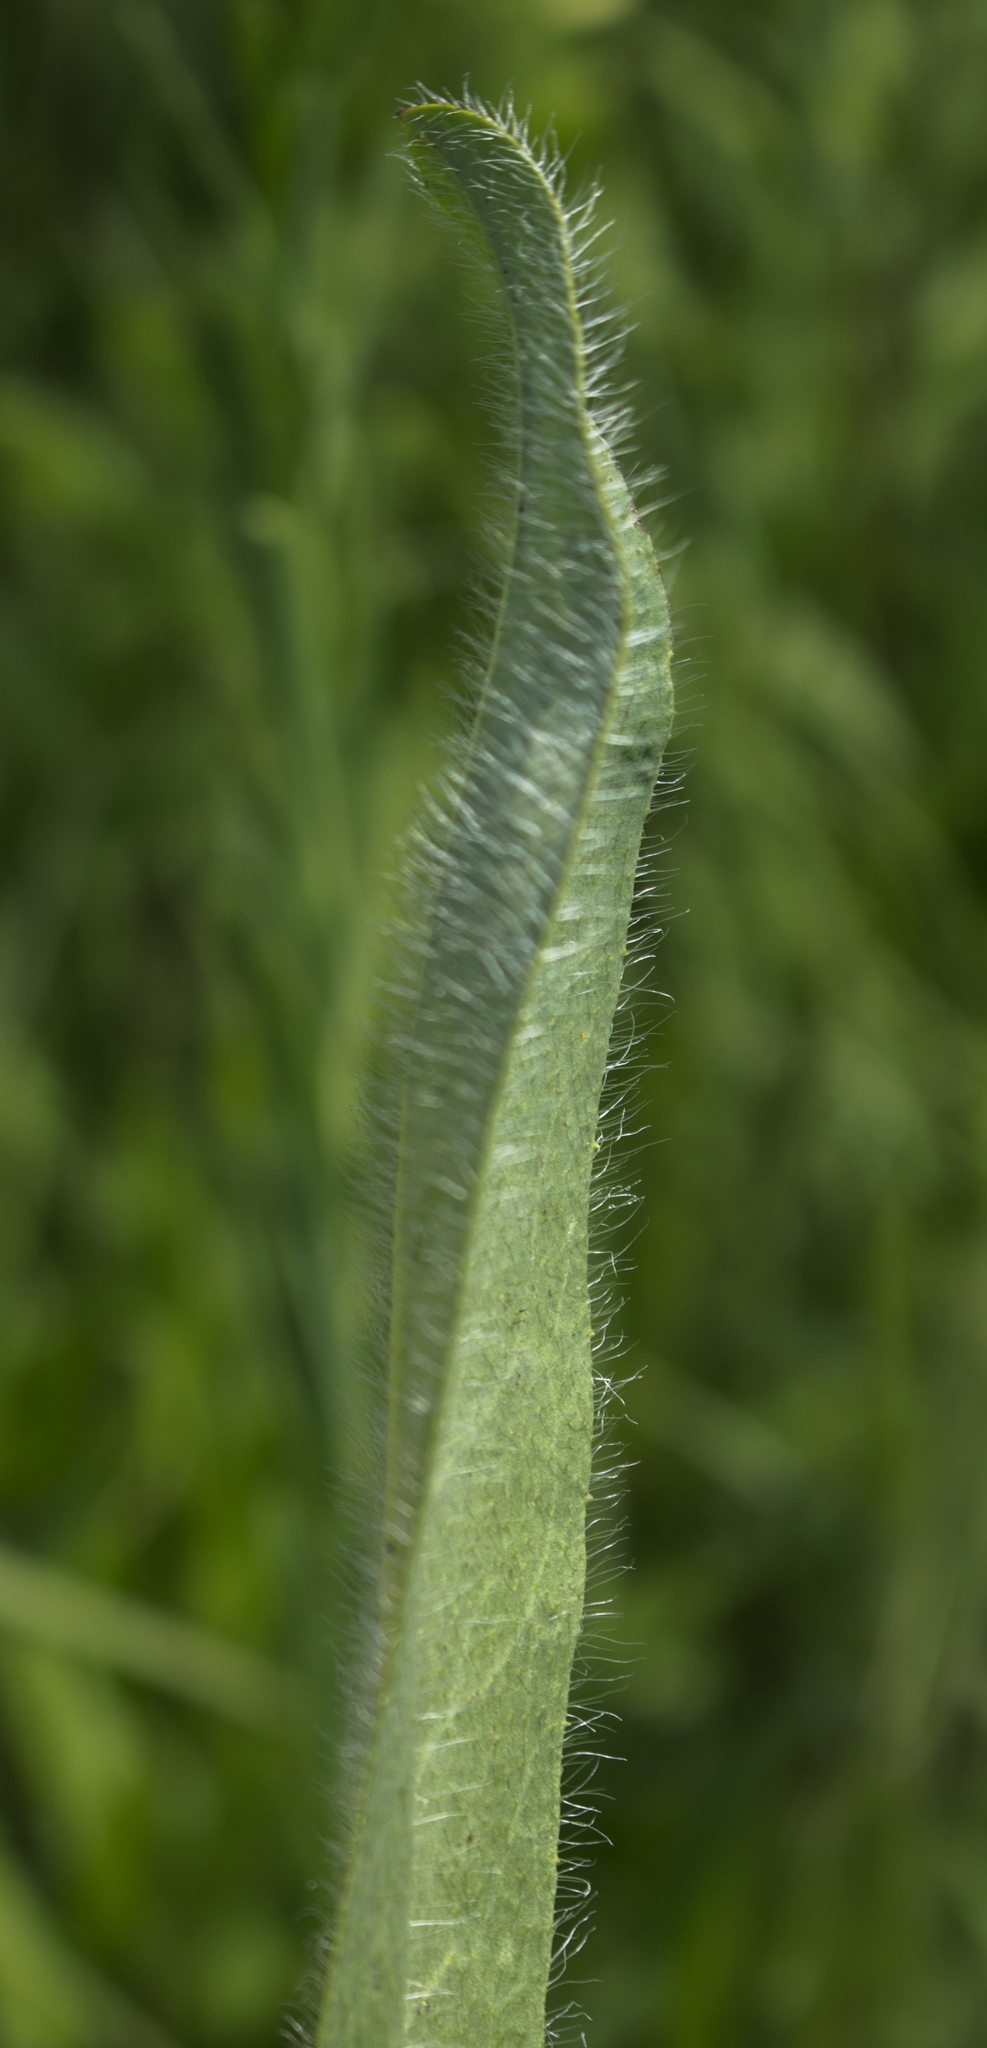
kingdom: Plantae
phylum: Tracheophyta
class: Magnoliopsida
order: Asterales
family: Asteraceae
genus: Hieracium
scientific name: Hieracium longipilum
